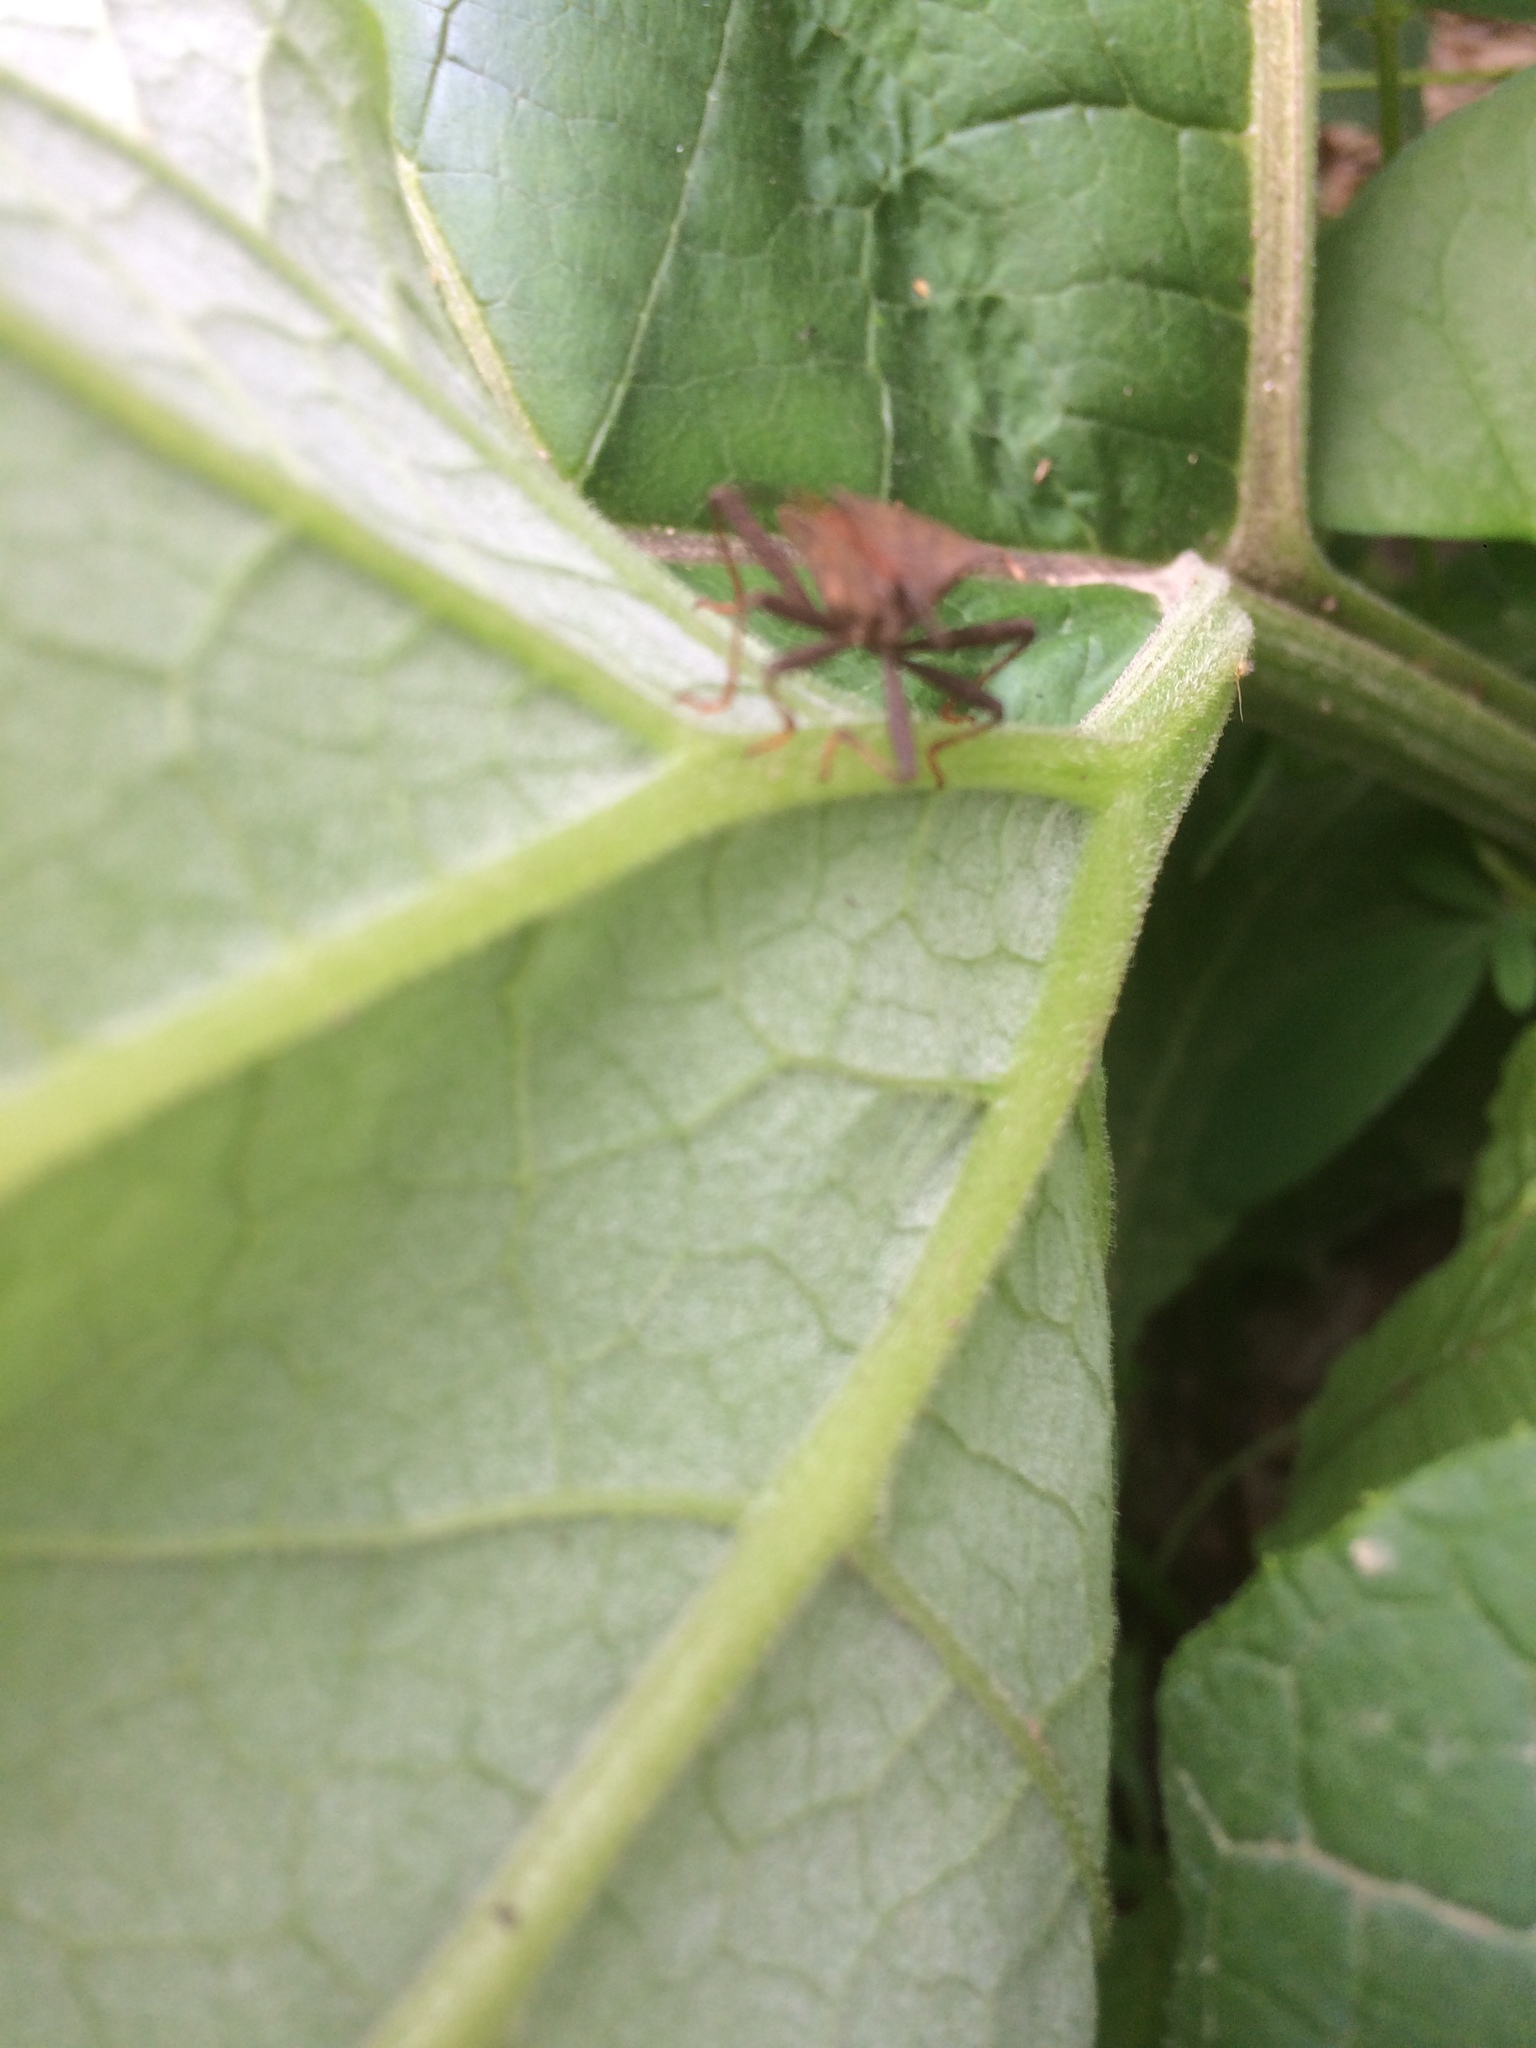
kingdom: Animalia
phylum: Arthropoda
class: Insecta
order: Hemiptera
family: Coreidae
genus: Coreus
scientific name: Coreus marginatus
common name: Dock bug
